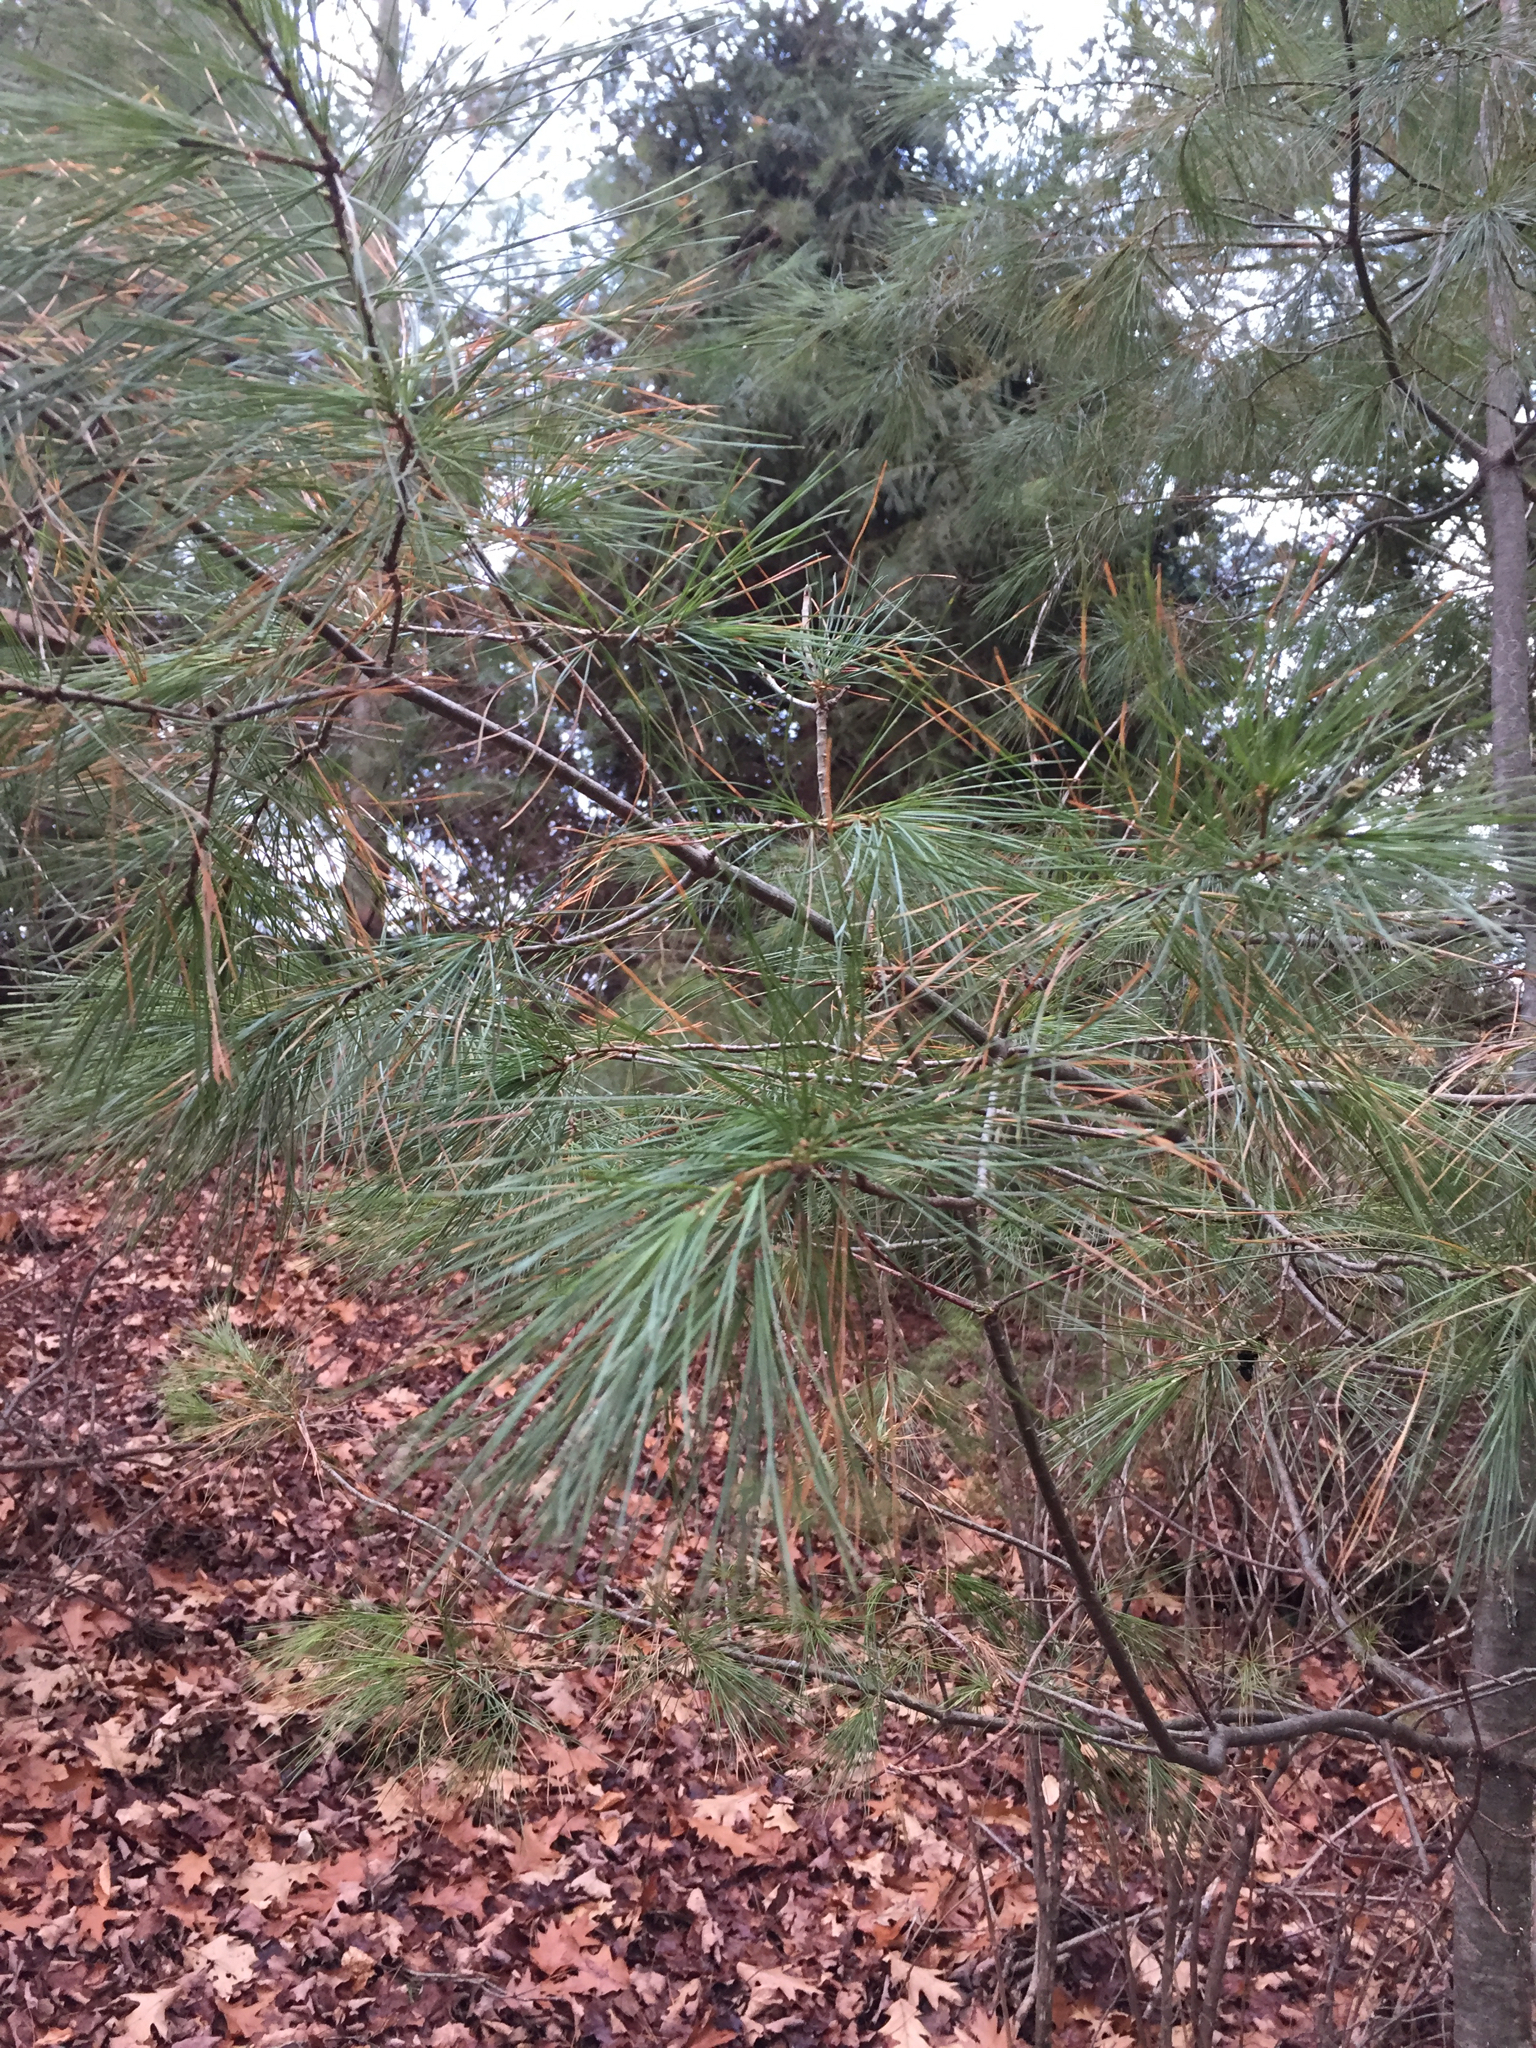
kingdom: Plantae
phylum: Tracheophyta
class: Pinopsida
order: Pinales
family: Pinaceae
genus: Pinus
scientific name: Pinus strobus
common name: Weymouth pine
